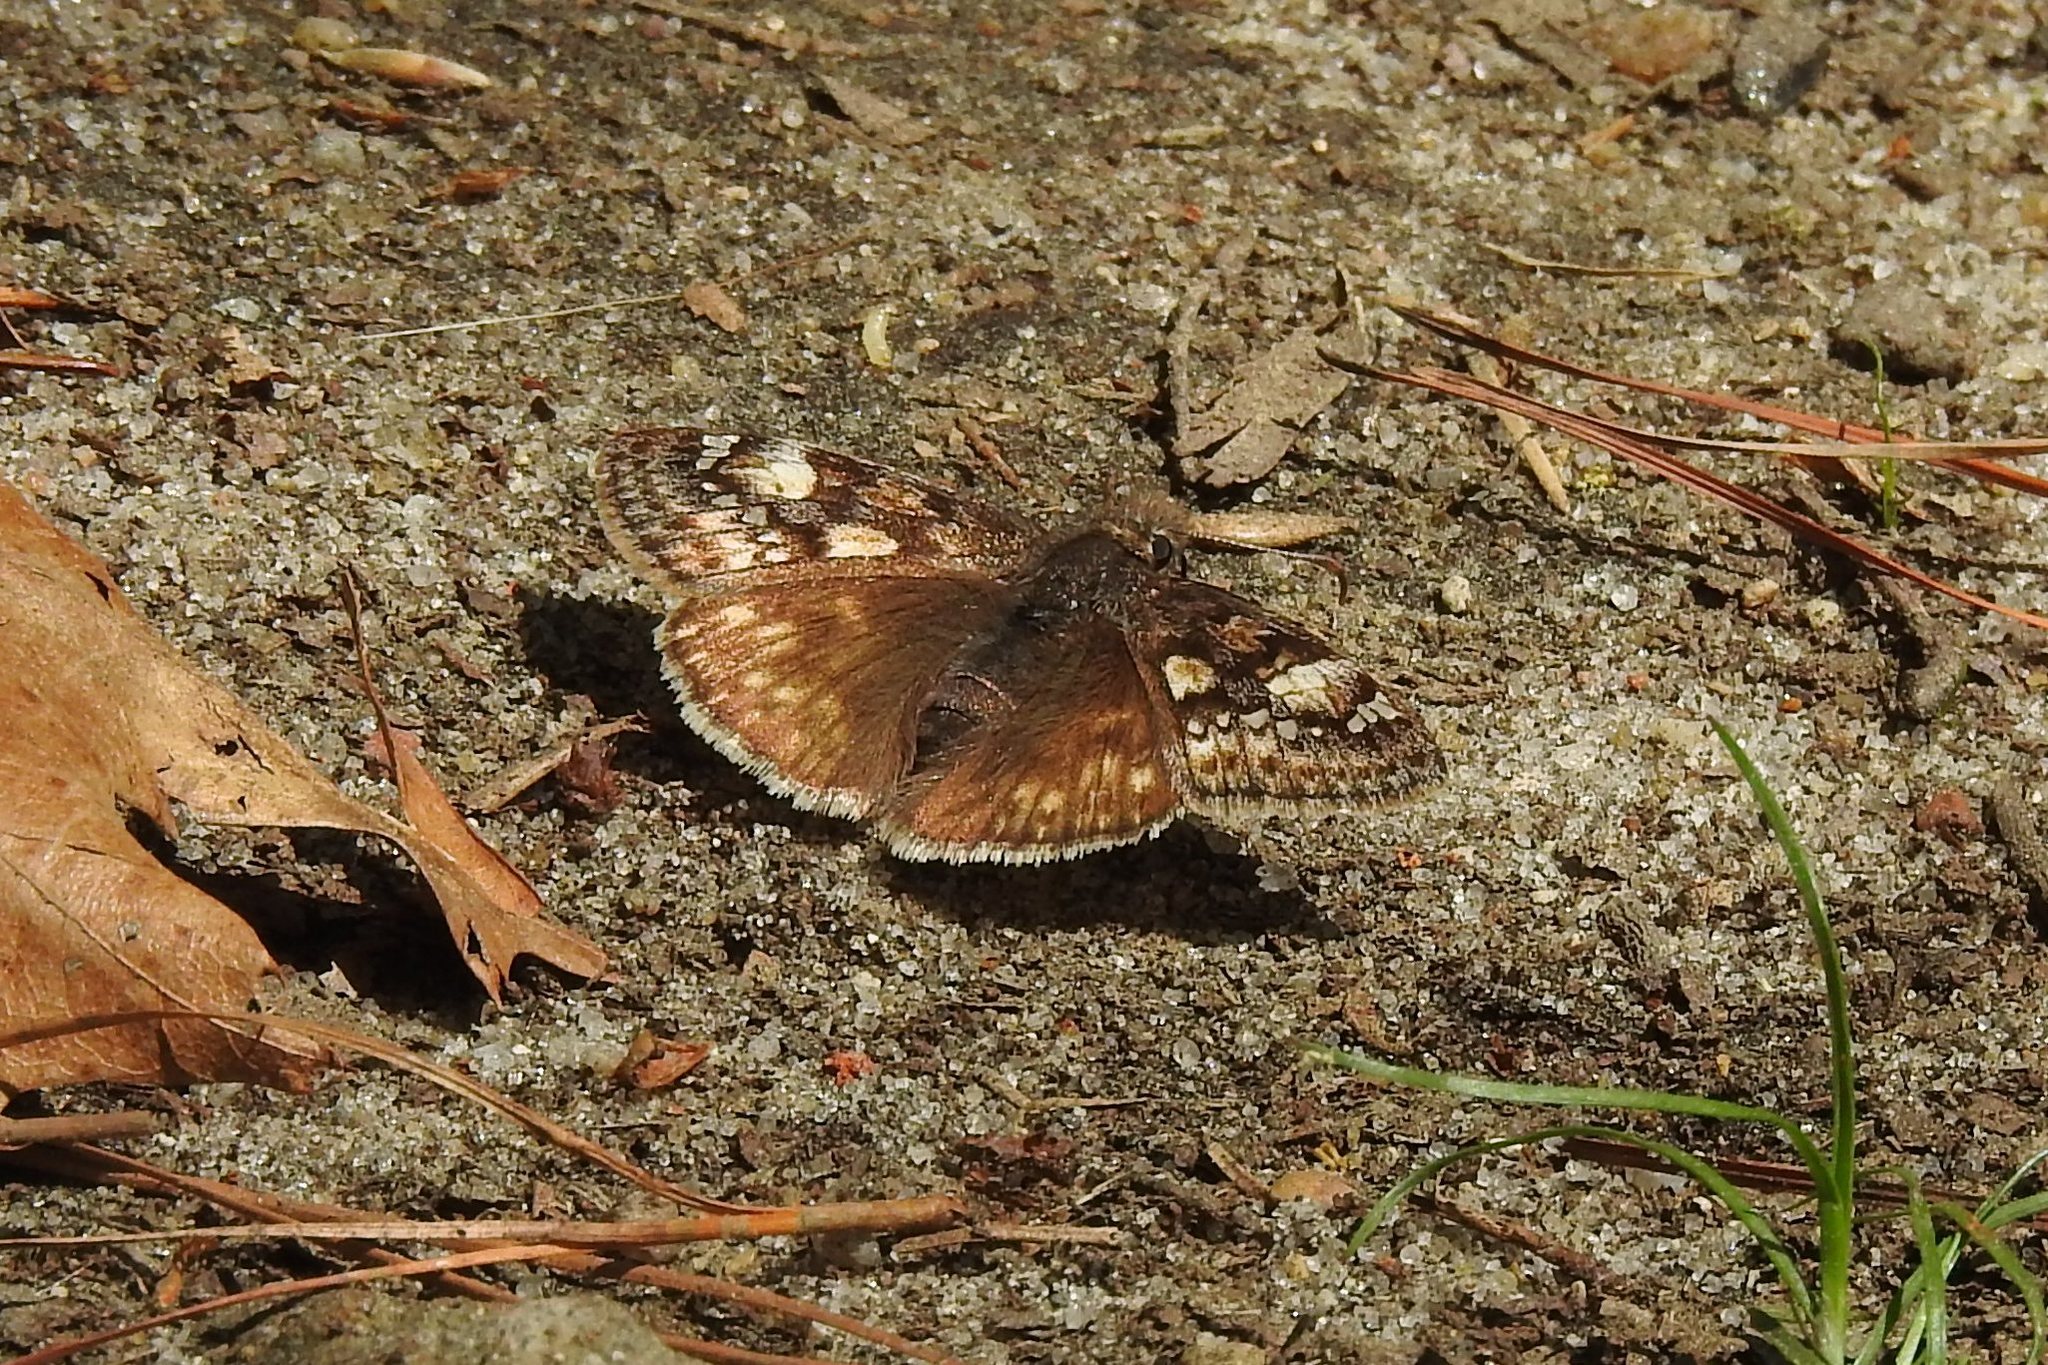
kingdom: Animalia
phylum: Arthropoda
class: Insecta
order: Lepidoptera
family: Hesperiidae
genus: Erynnis
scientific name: Erynnis juvenalis
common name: Juvenal's duskywing
